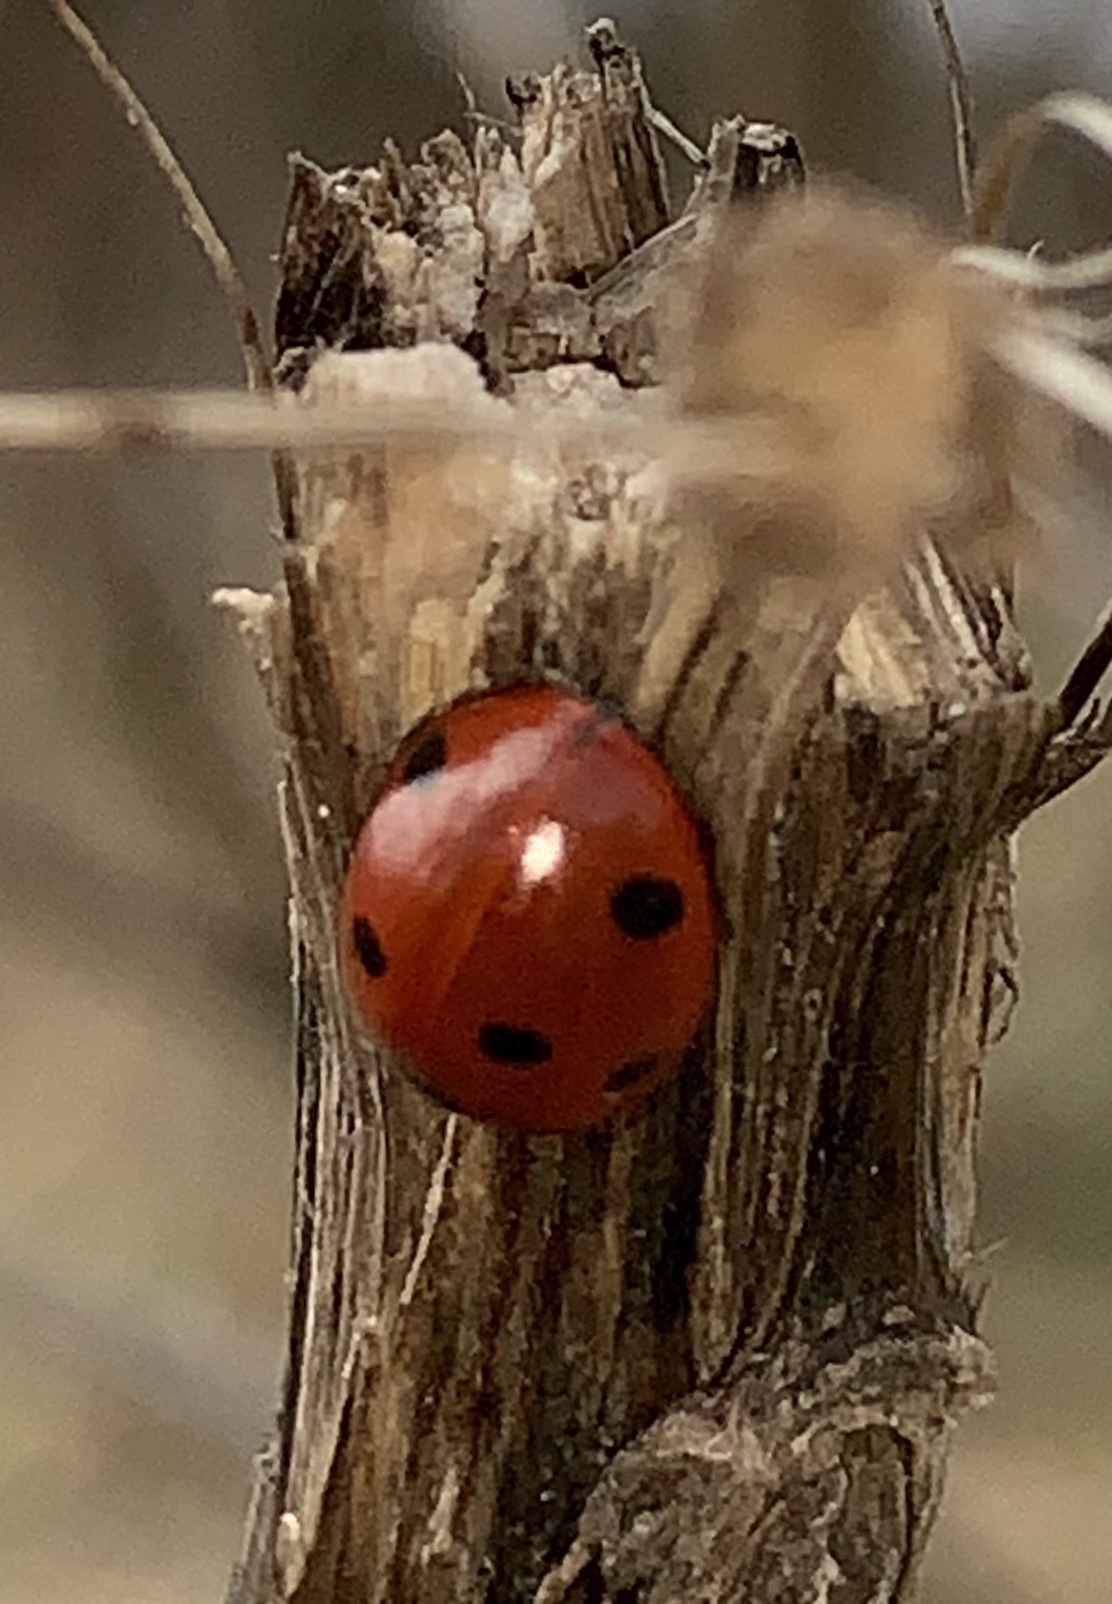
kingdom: Animalia
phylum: Arthropoda
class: Insecta
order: Coleoptera
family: Coccinellidae
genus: Coccinella
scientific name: Coccinella septempunctata
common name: Sevenspotted lady beetle
